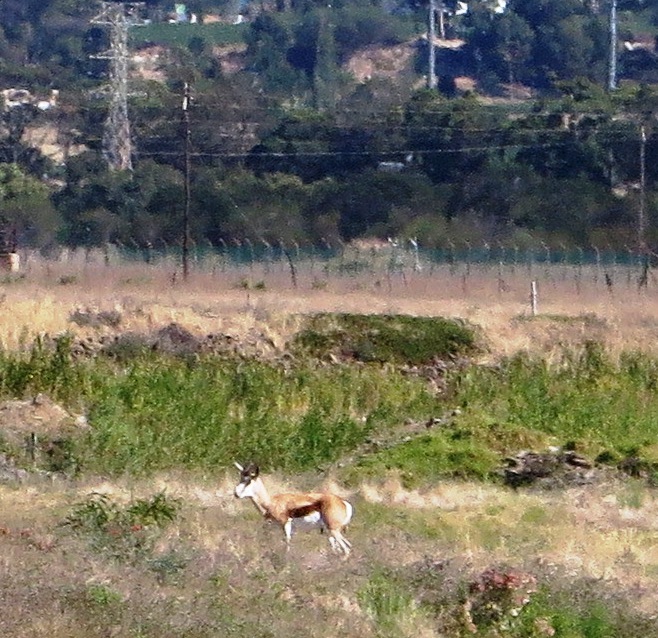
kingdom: Animalia
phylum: Chordata
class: Mammalia
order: Artiodactyla
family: Bovidae
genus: Antidorcas
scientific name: Antidorcas marsupialis
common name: Springbok
